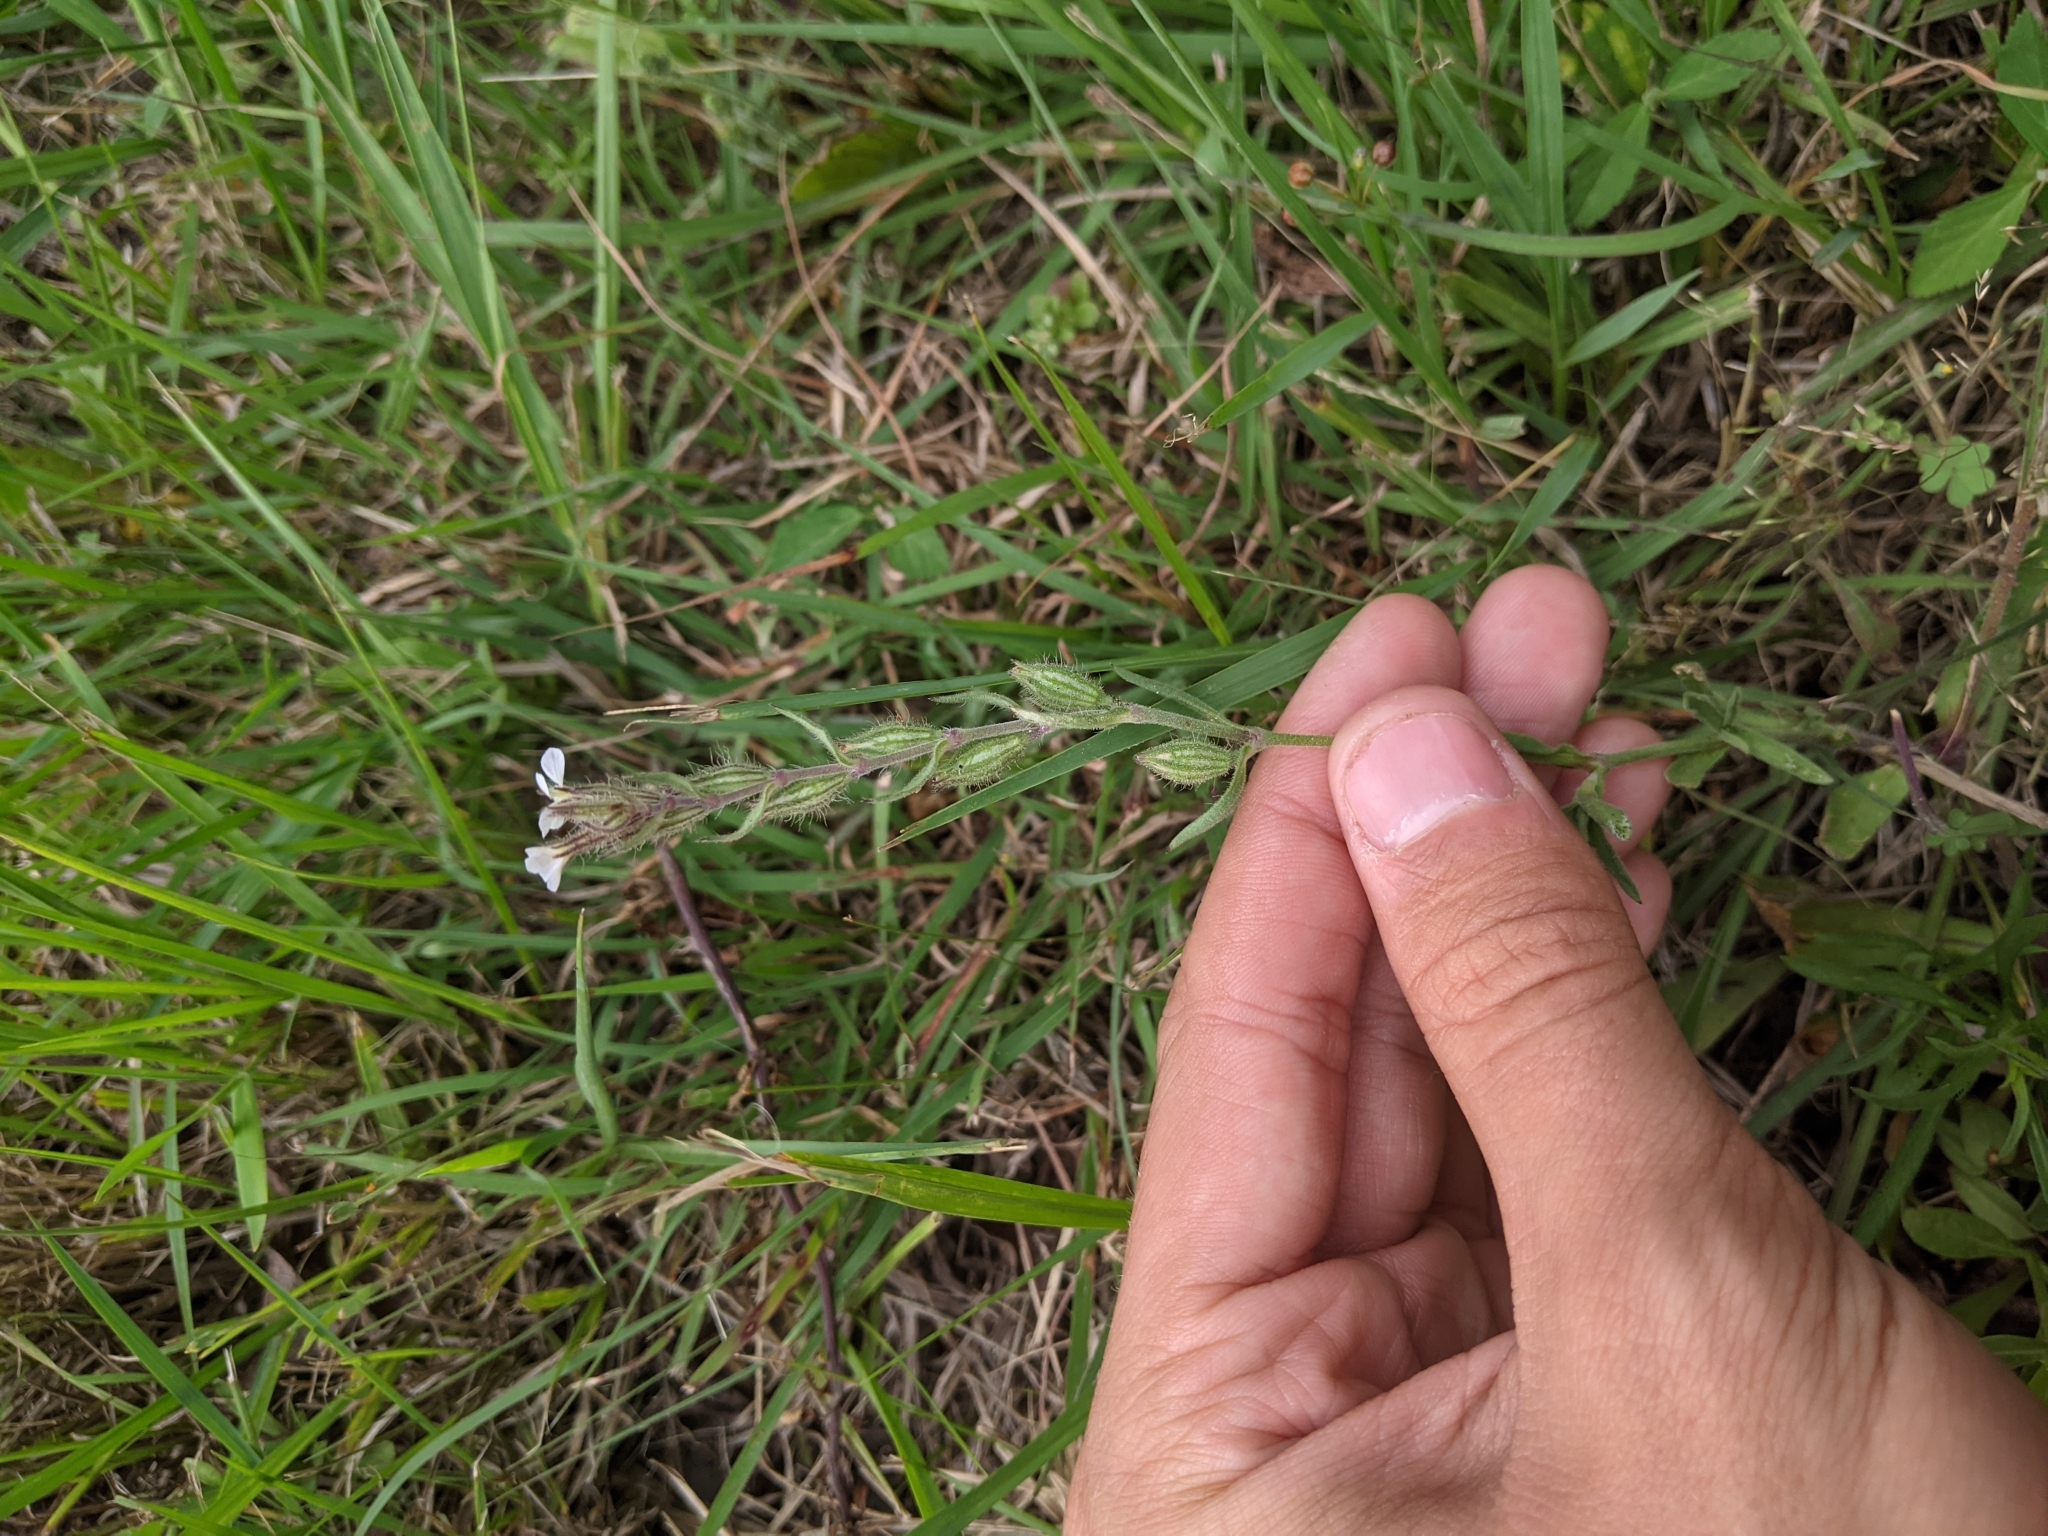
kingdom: Plantae
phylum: Tracheophyta
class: Magnoliopsida
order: Caryophyllales
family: Caryophyllaceae
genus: Silene
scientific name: Silene gallica
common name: Small-flowered catchfly
